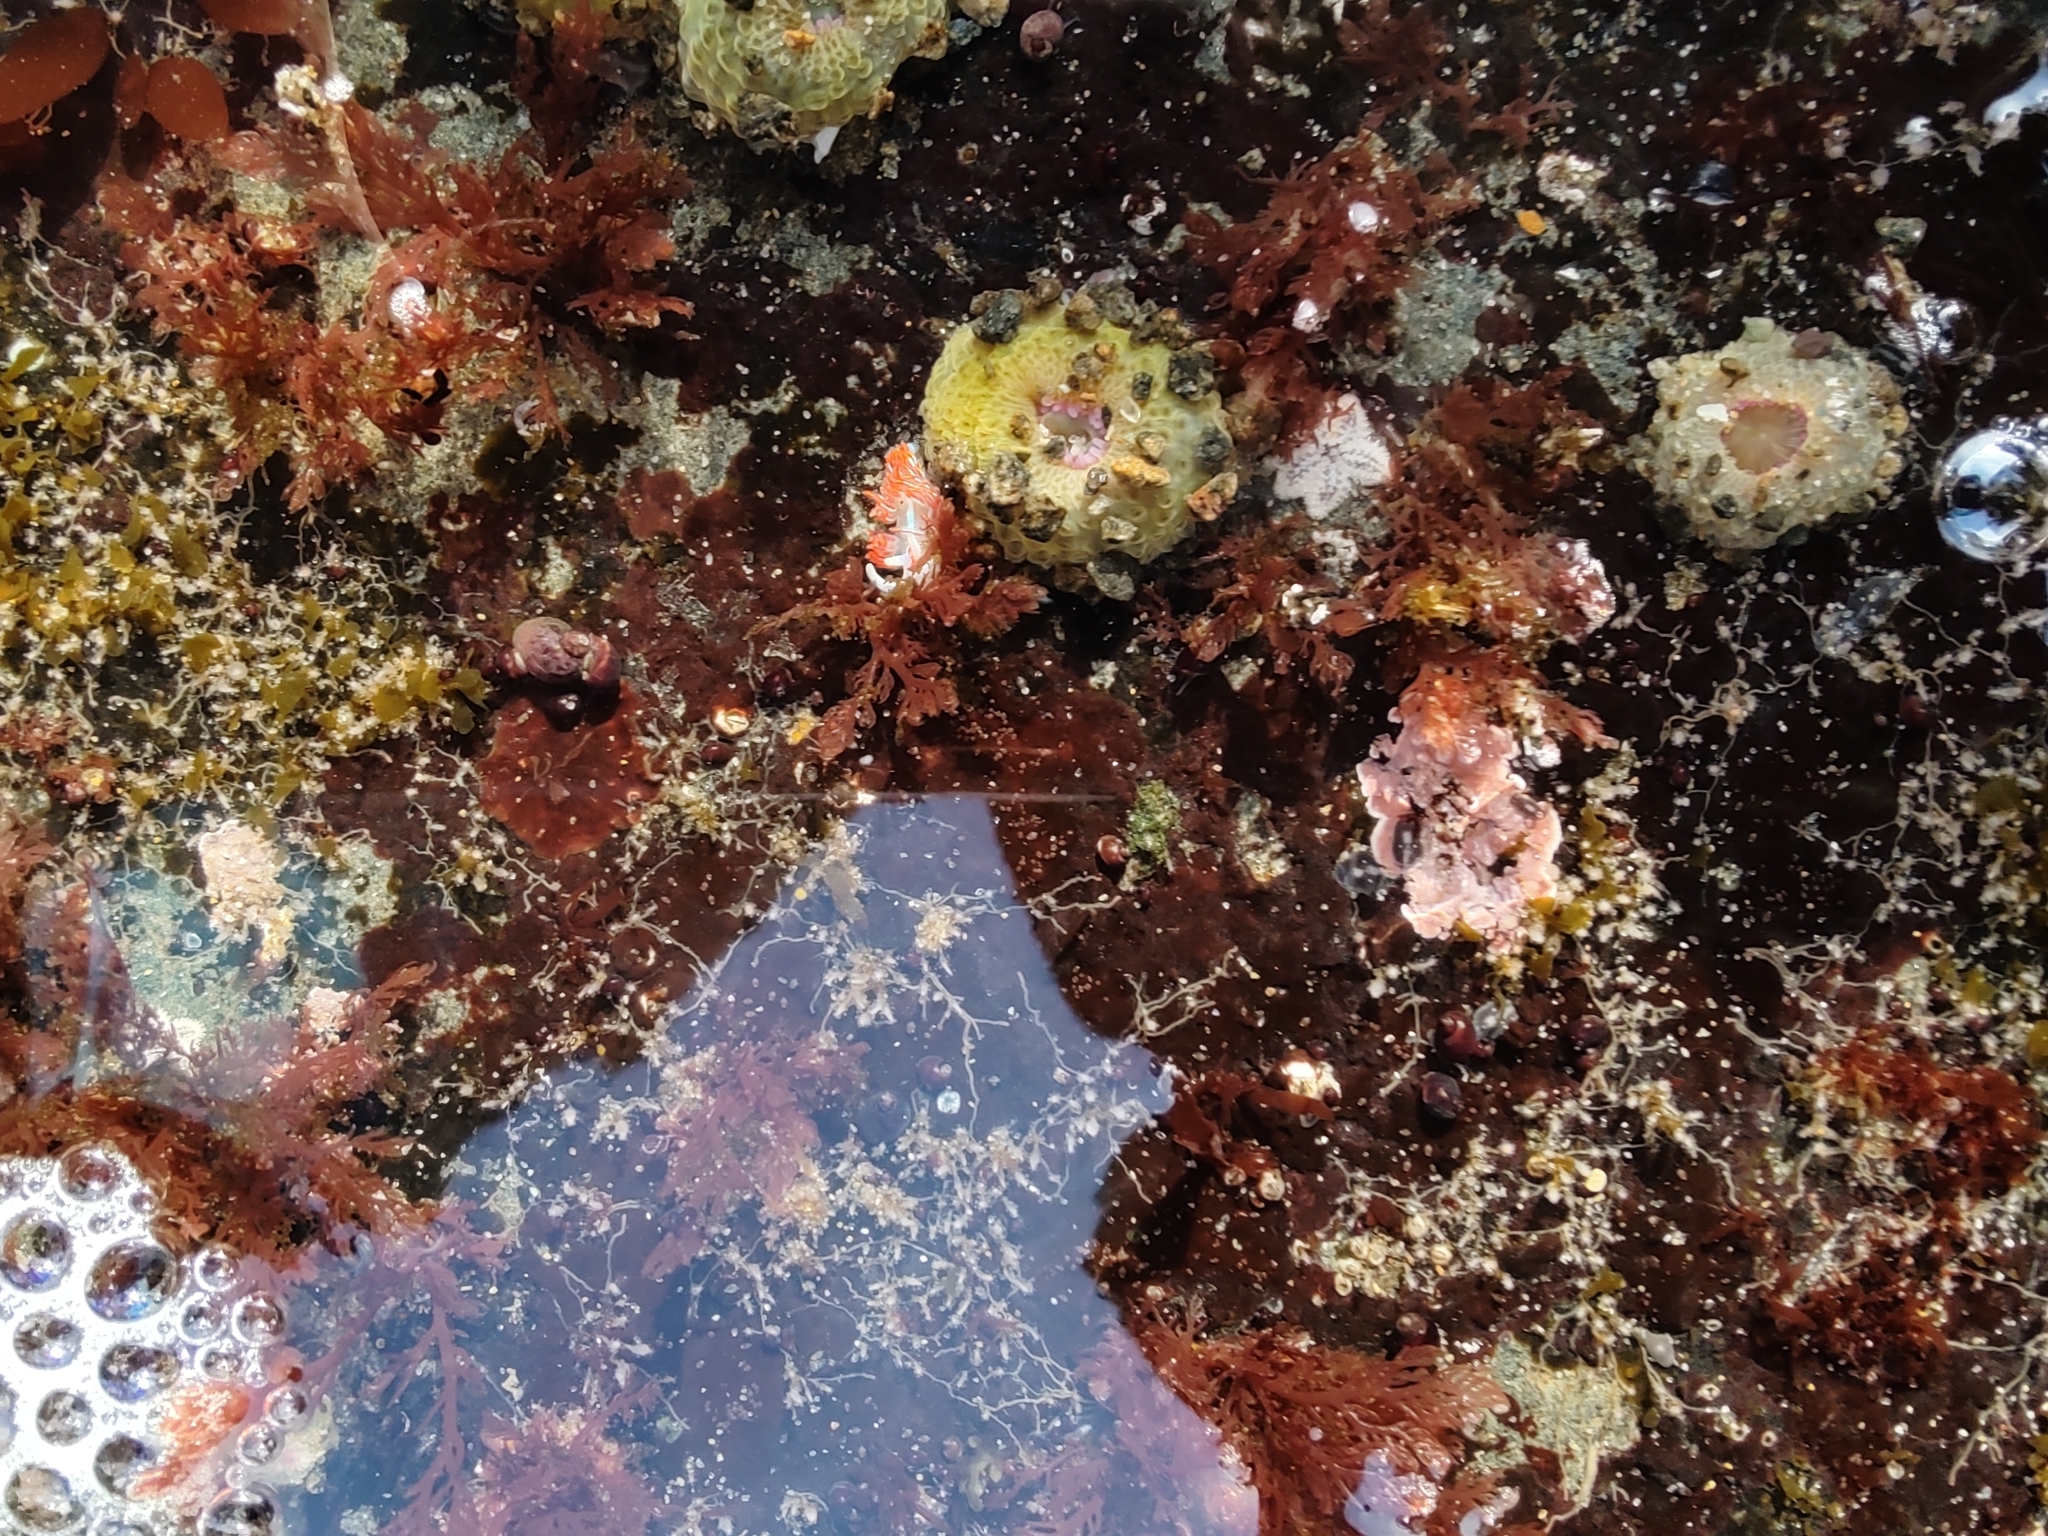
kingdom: Animalia
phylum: Mollusca
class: Gastropoda
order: Nudibranchia
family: Myrrhinidae
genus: Hermissenda
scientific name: Hermissenda crassicornis
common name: Hermissenda
